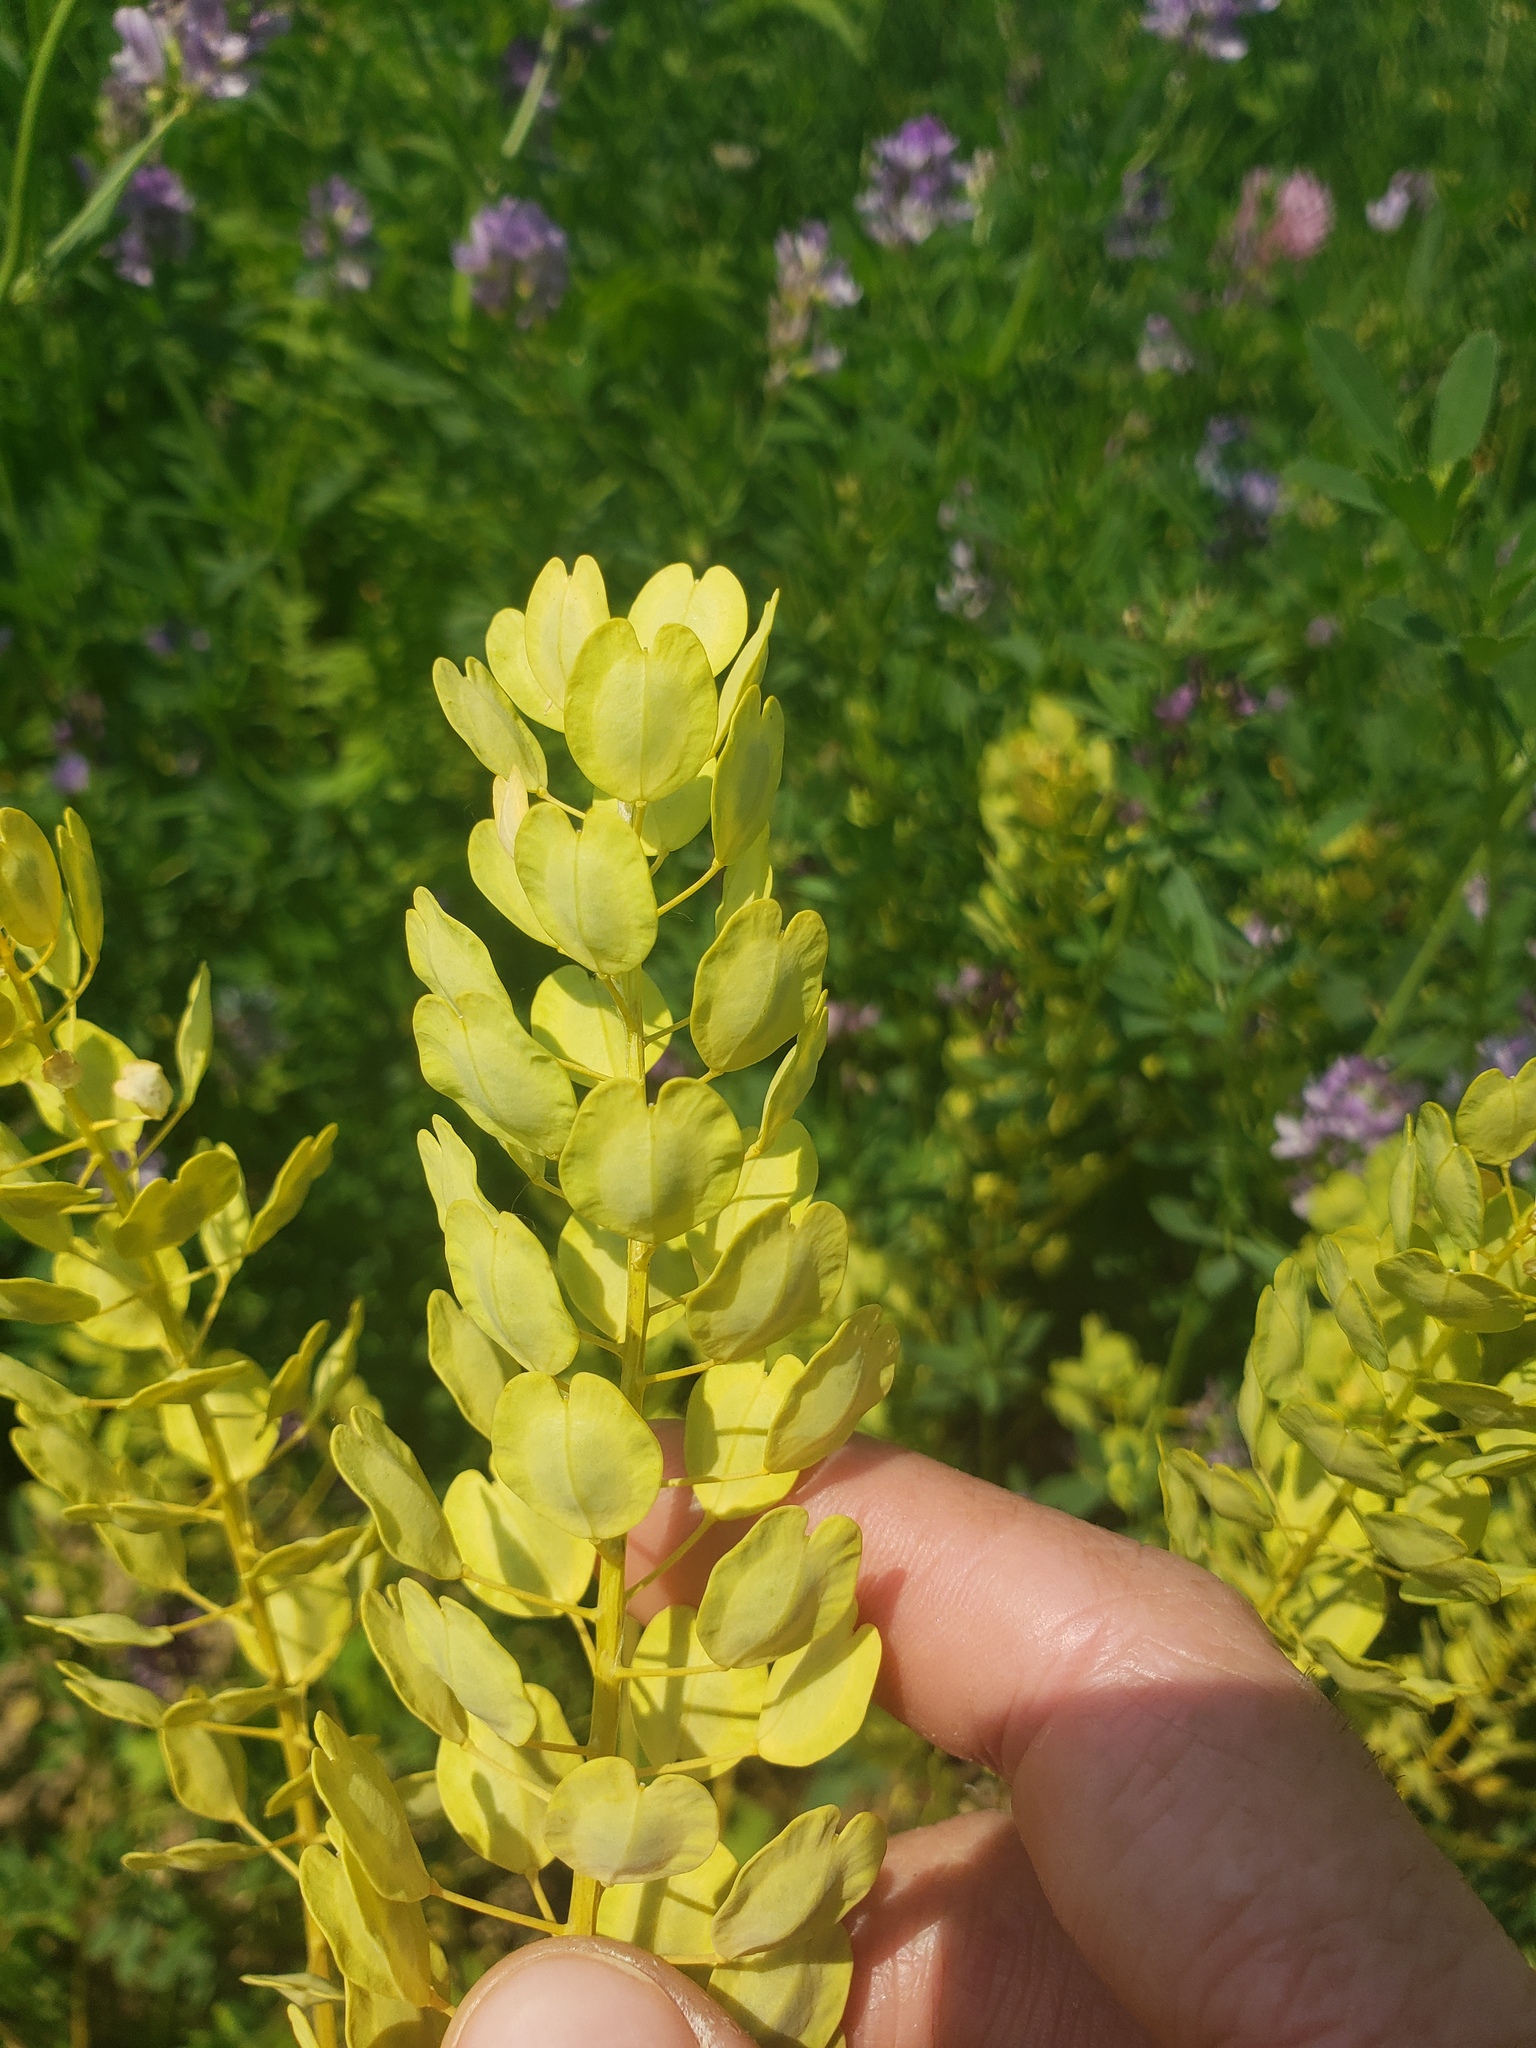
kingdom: Plantae
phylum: Tracheophyta
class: Magnoliopsida
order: Brassicales
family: Brassicaceae
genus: Thlaspi
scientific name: Thlaspi arvense
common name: Field pennycress
